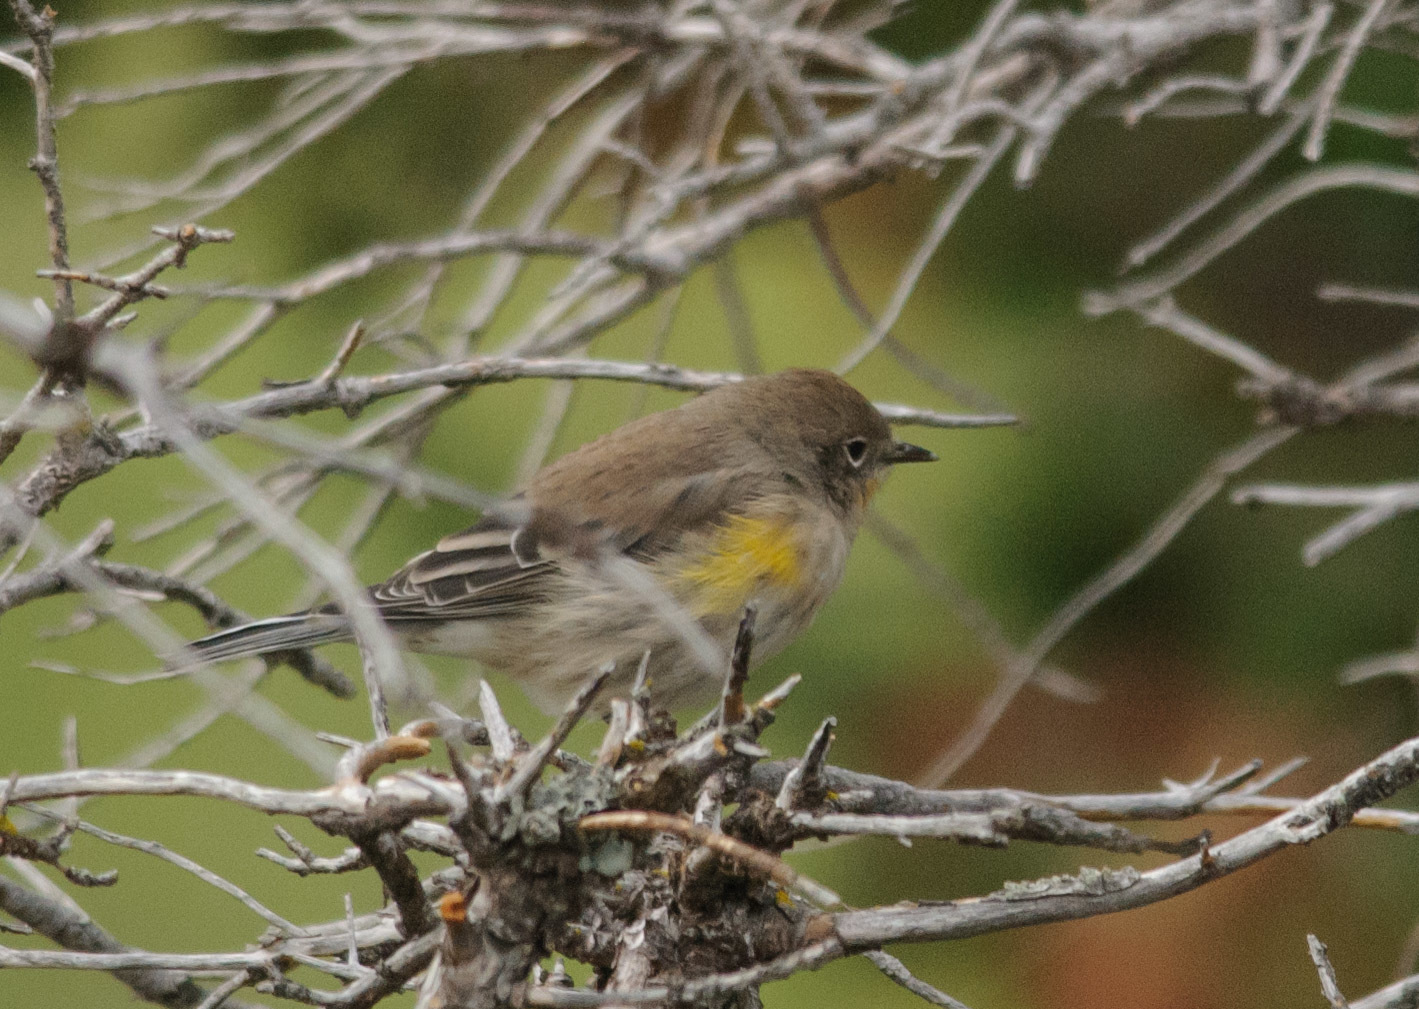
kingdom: Animalia
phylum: Chordata
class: Aves
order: Passeriformes
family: Parulidae
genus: Setophaga
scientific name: Setophaga coronata
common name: Myrtle warbler
